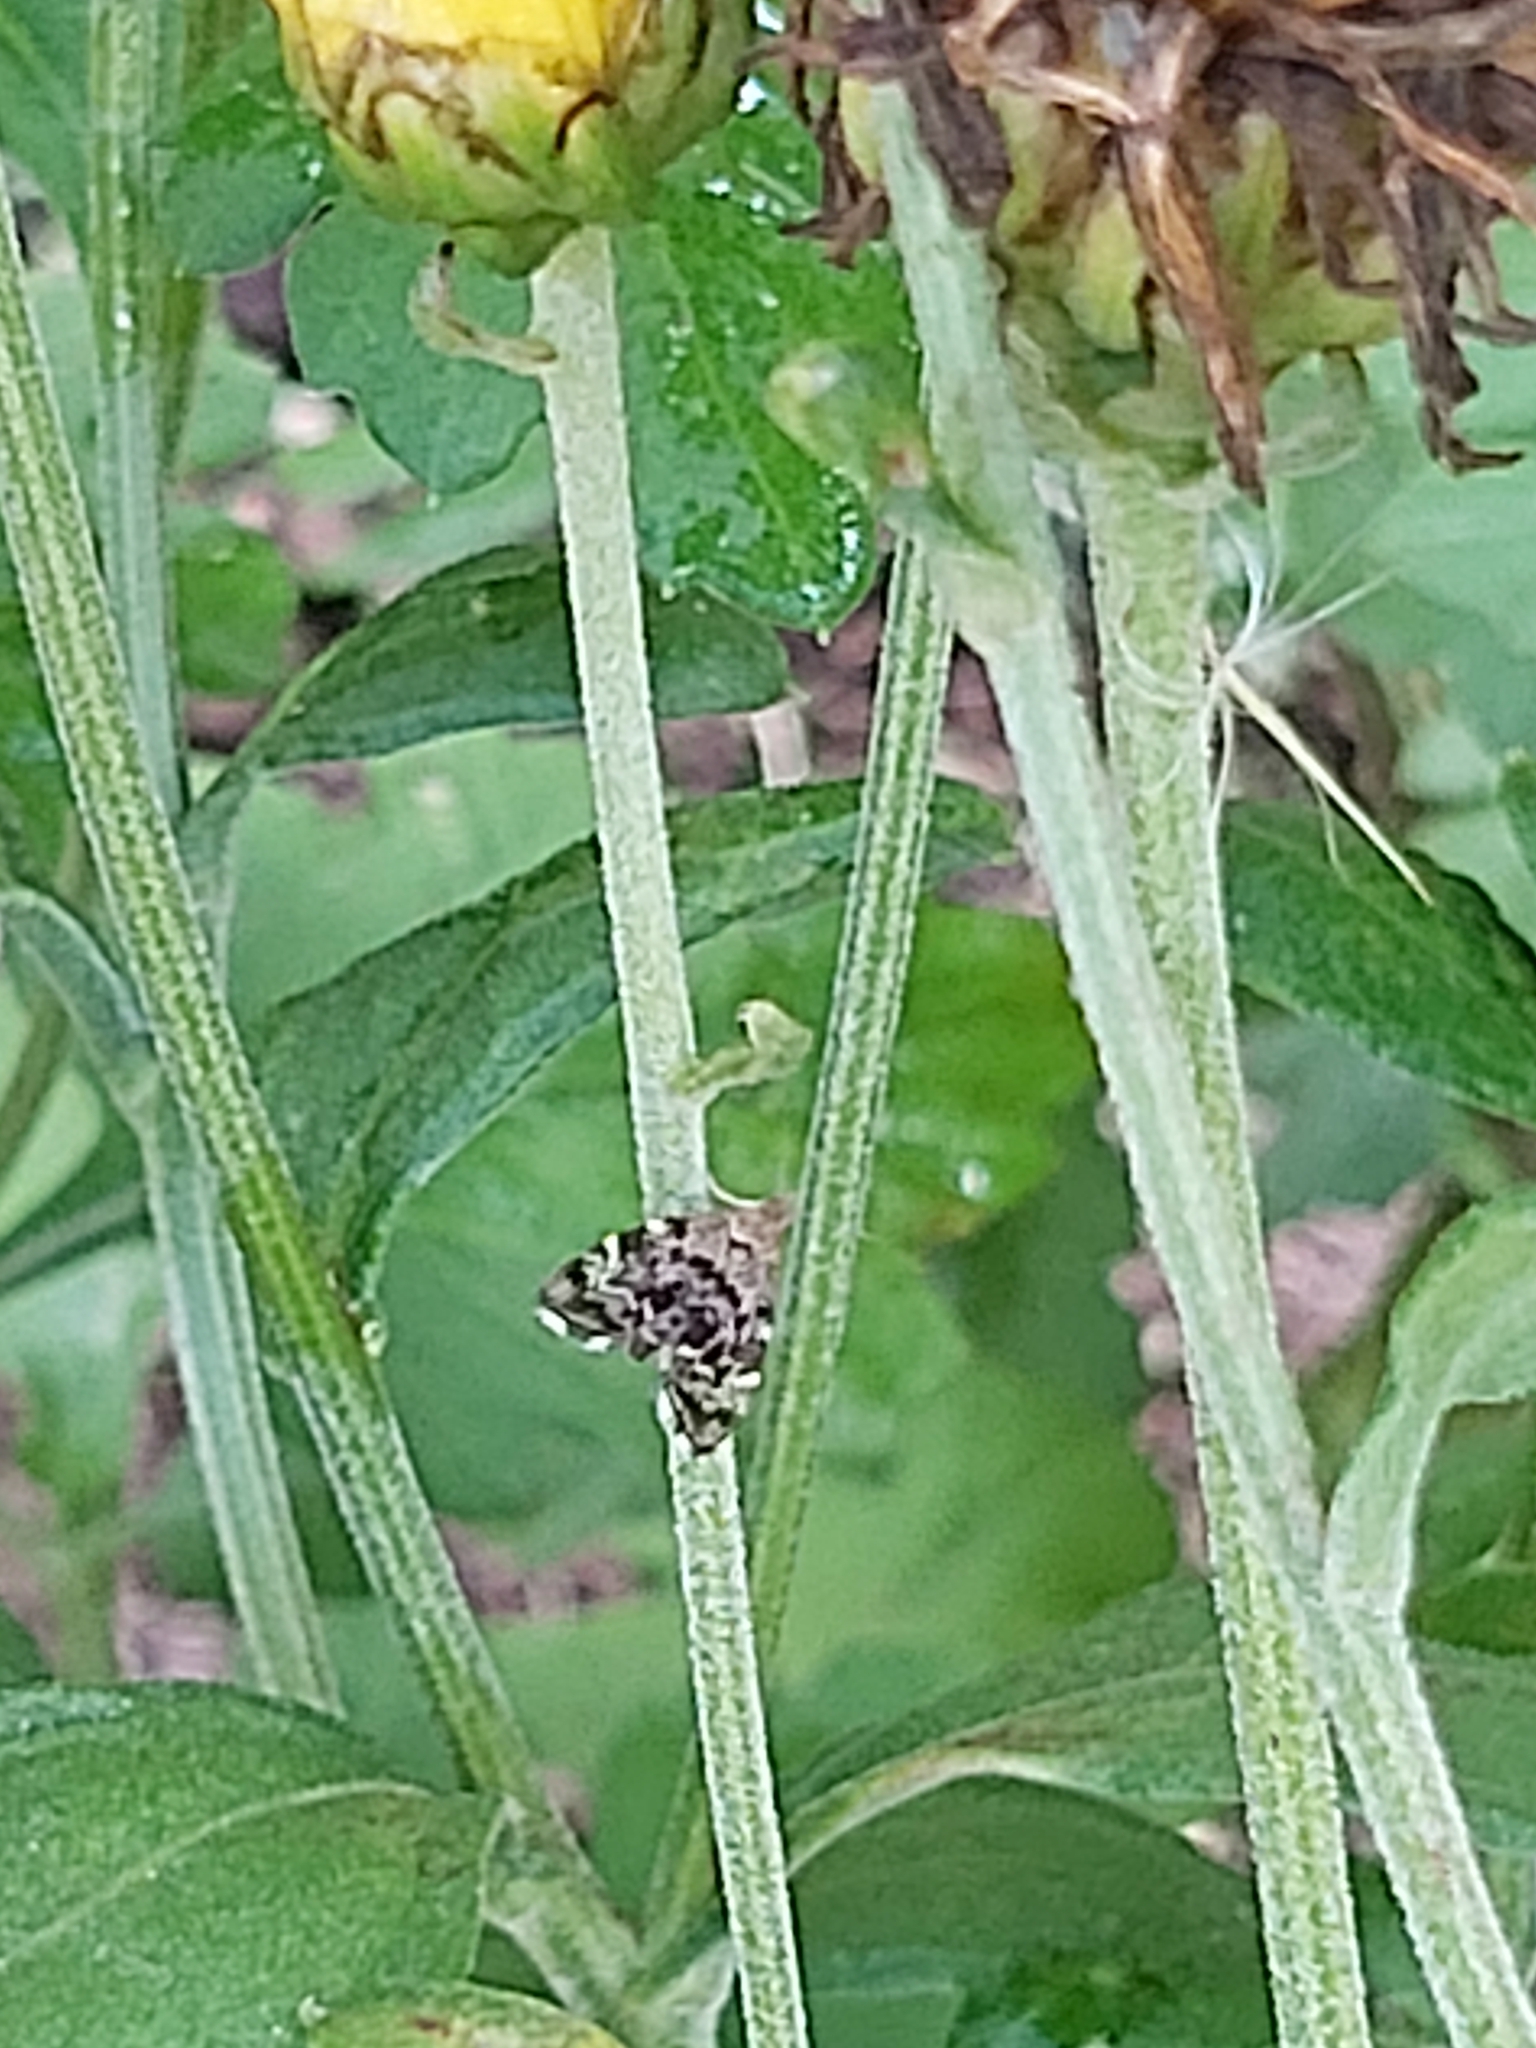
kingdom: Animalia
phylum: Arthropoda
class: Insecta
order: Lepidoptera
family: Choreutidae
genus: Anthophila
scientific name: Anthophila fabriciana
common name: Nettle-tap
